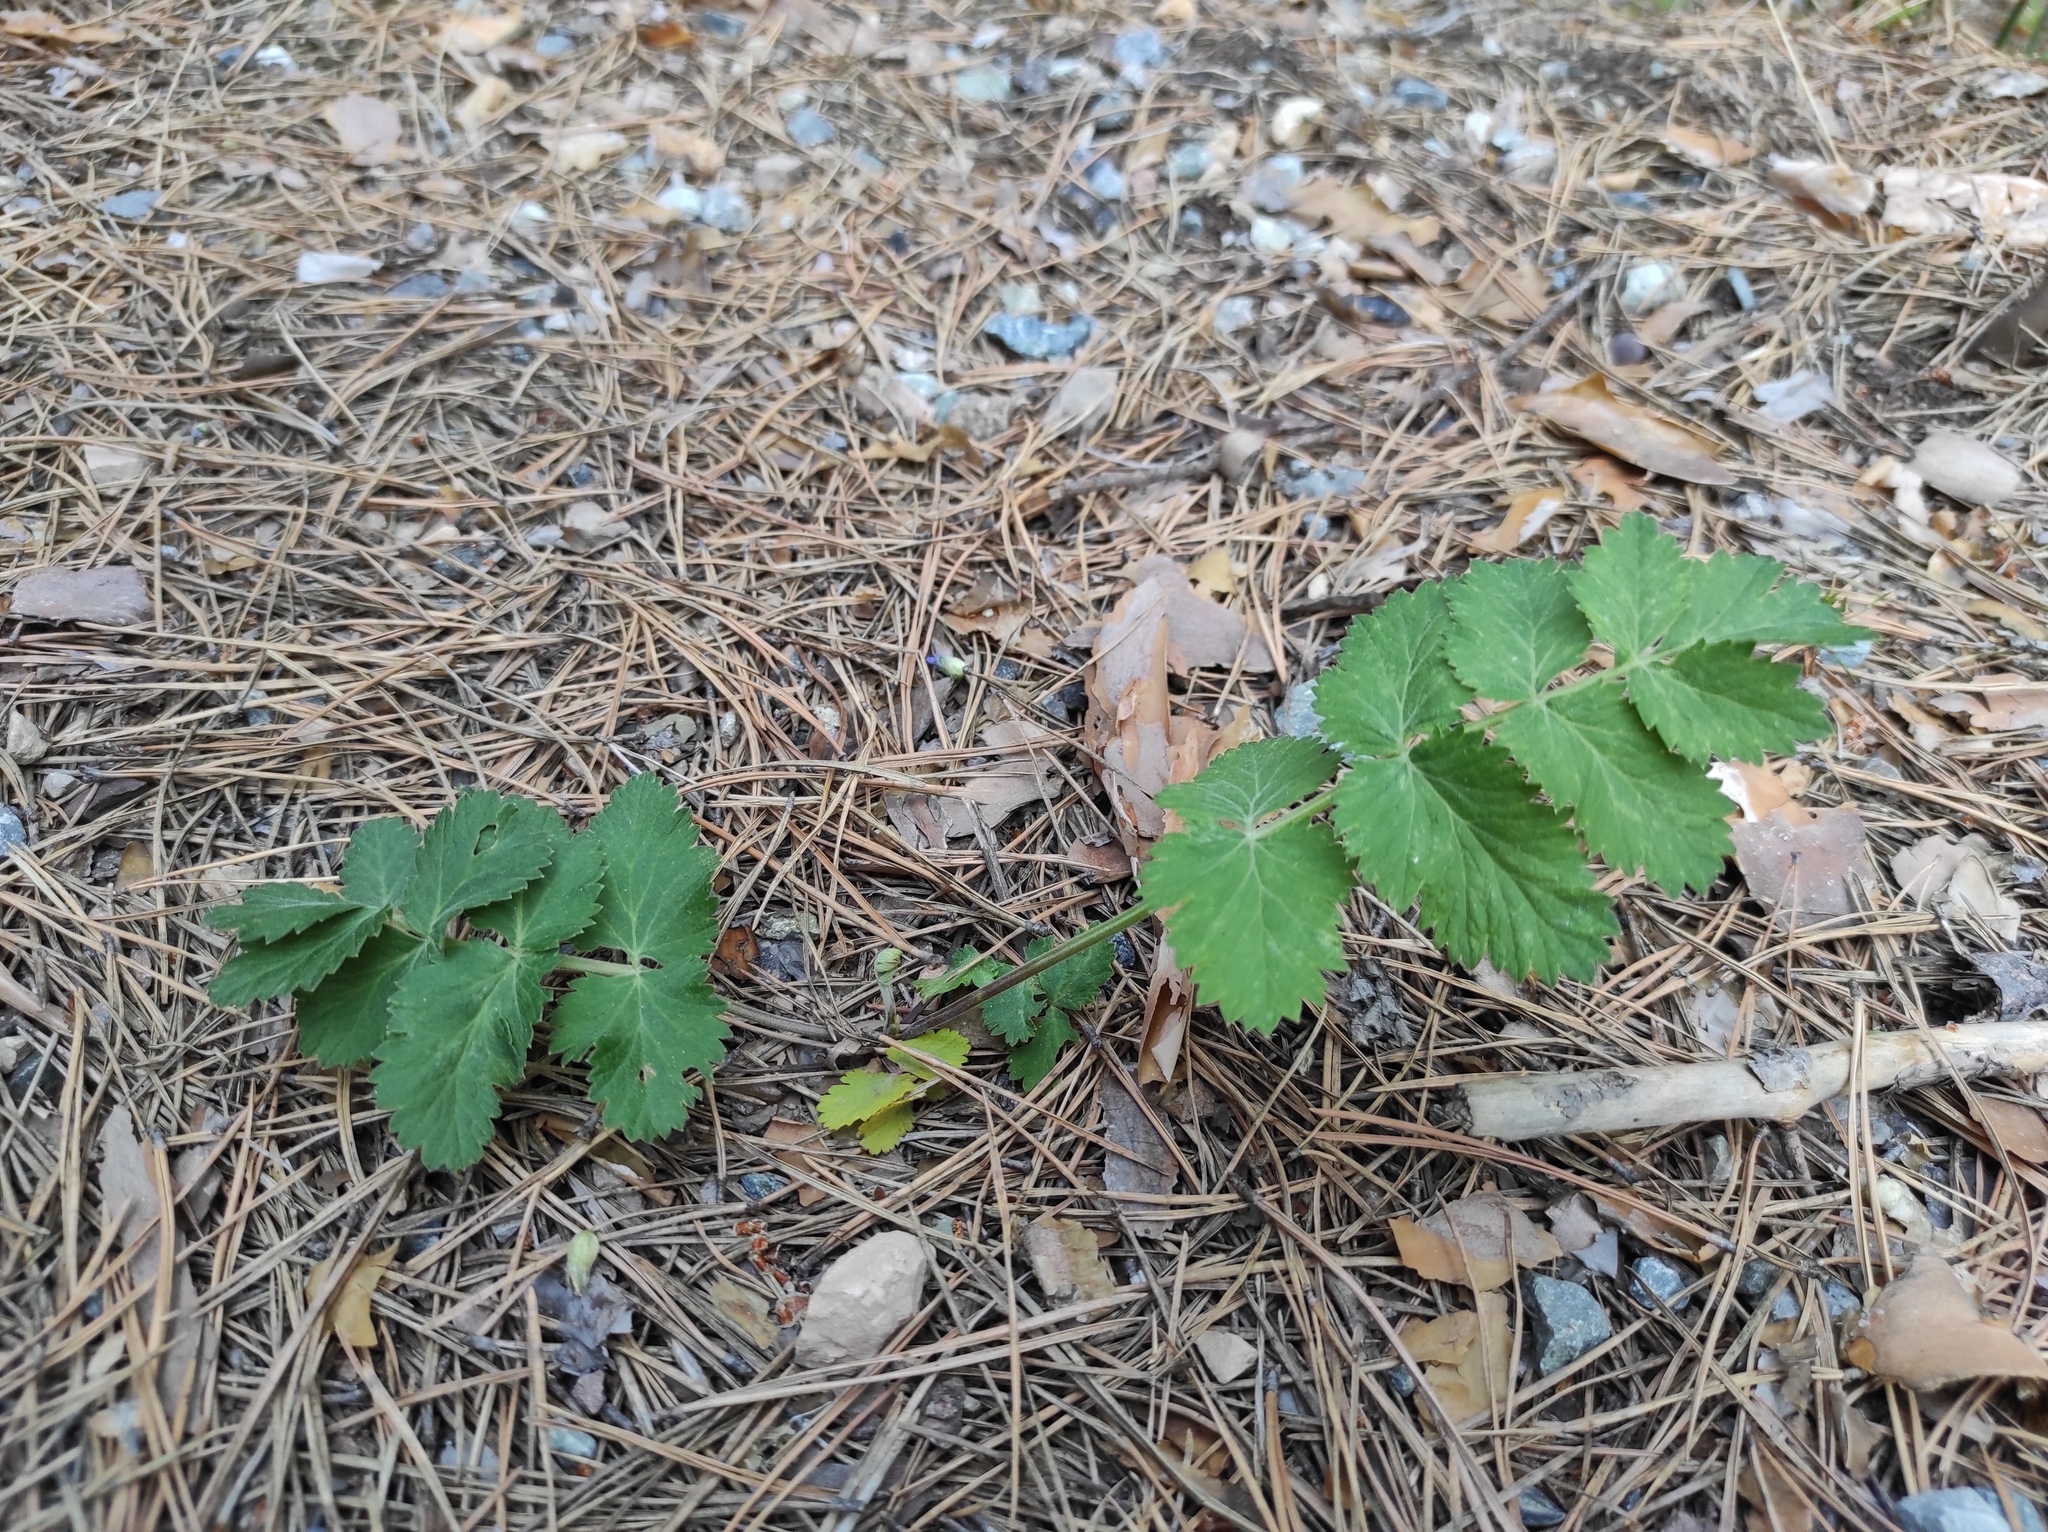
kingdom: Plantae
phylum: Tracheophyta
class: Magnoliopsida
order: Apiales
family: Apiaceae
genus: Pimpinella
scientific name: Pimpinella saxifraga
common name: Burnet-saxifrage
